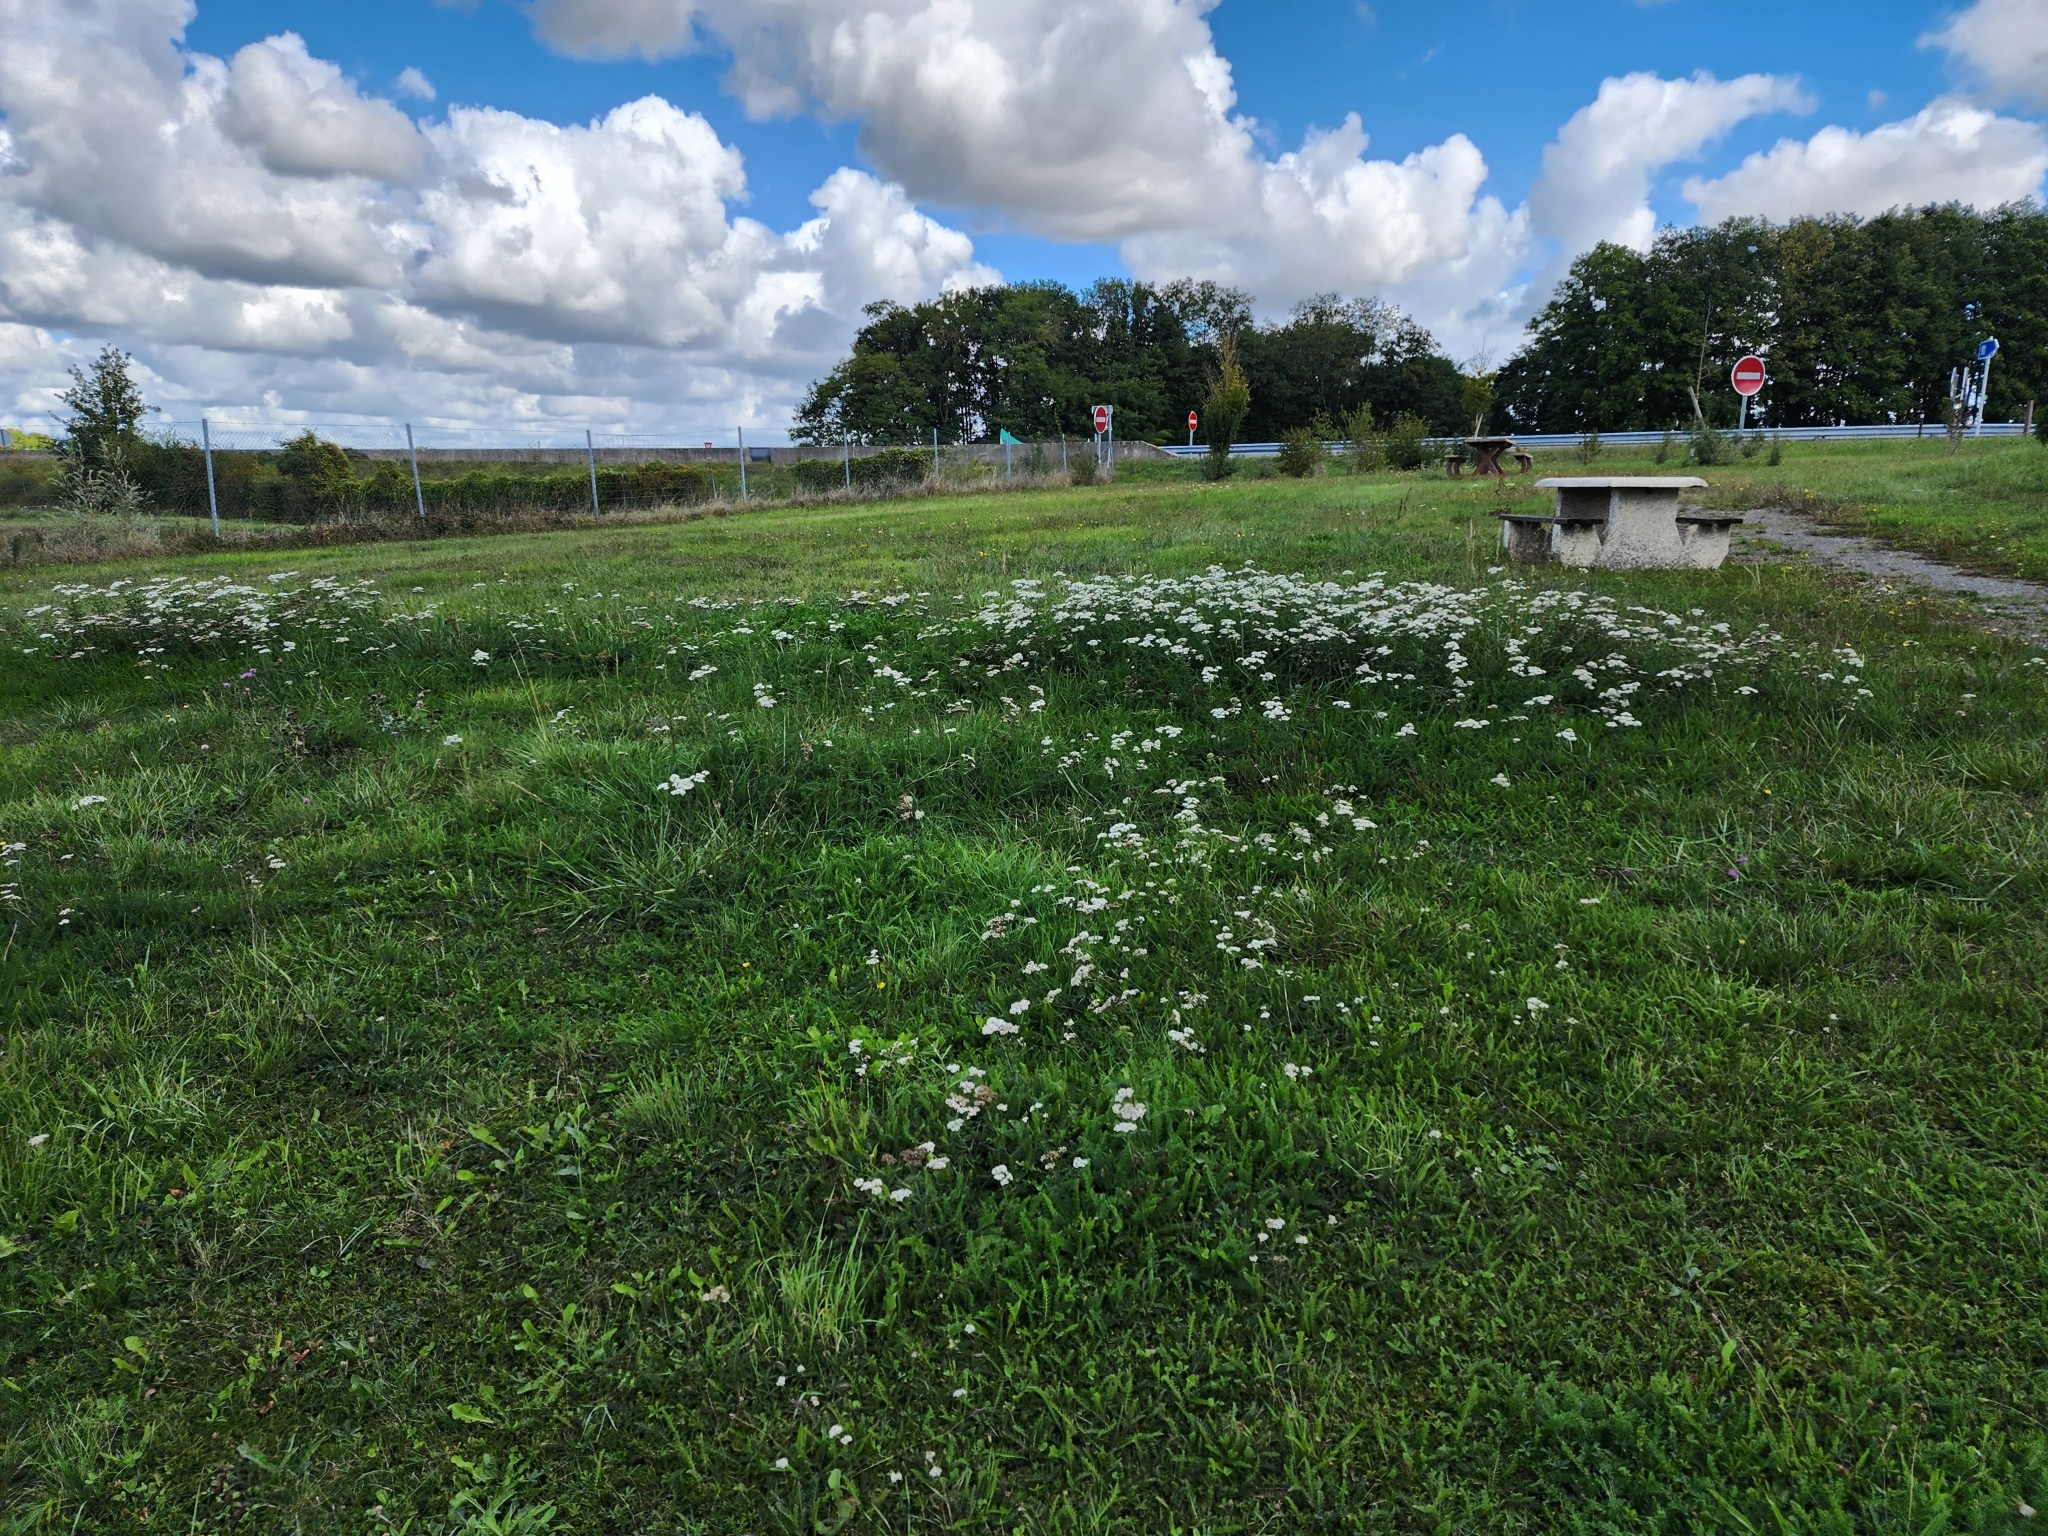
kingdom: Plantae
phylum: Tracheophyta
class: Magnoliopsida
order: Asterales
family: Asteraceae
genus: Achillea
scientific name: Achillea millefolium
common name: Yarrow
